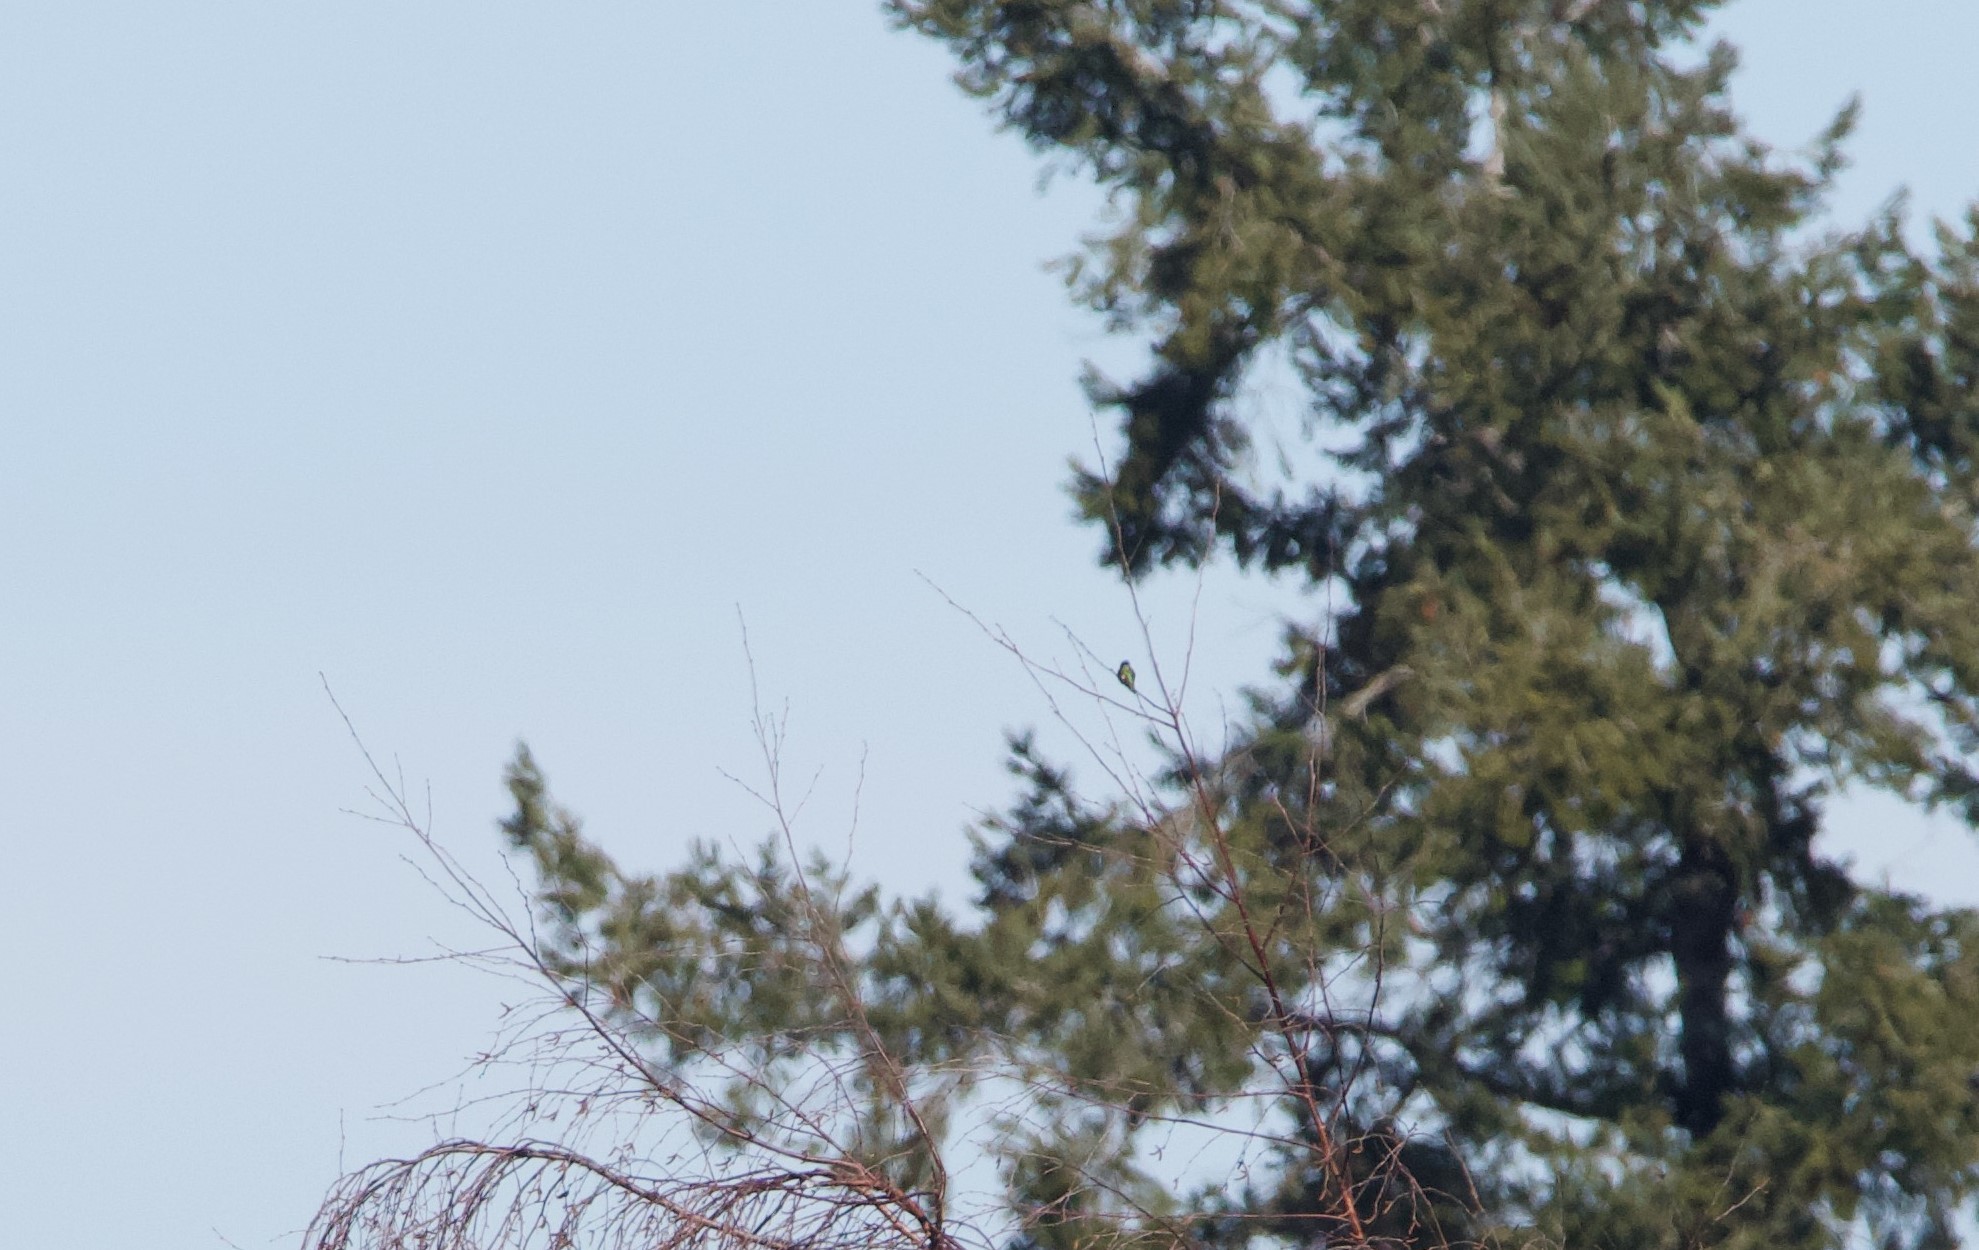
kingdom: Animalia
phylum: Chordata
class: Aves
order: Apodiformes
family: Trochilidae
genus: Calypte
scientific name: Calypte anna
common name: Anna's hummingbird
